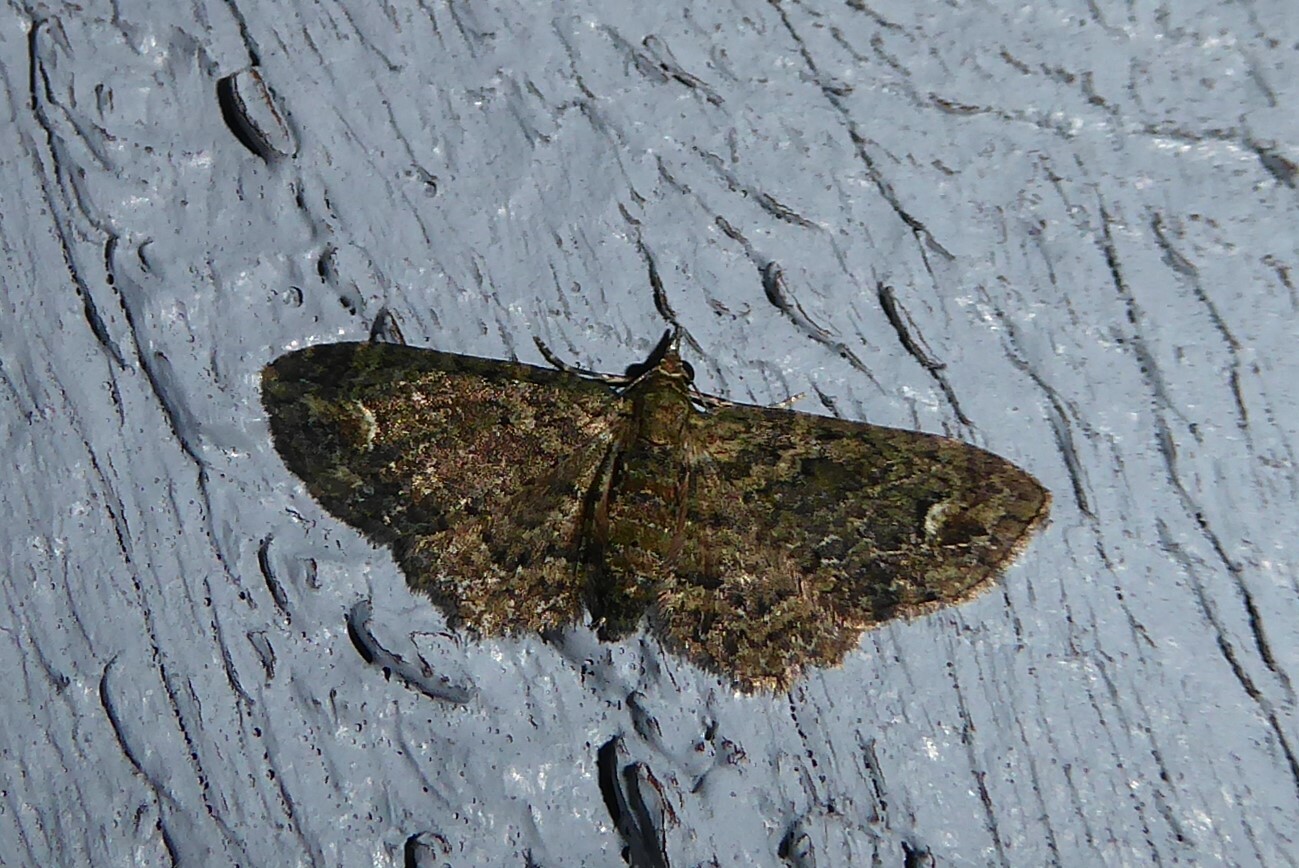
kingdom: Animalia
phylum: Arthropoda
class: Insecta
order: Lepidoptera
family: Geometridae
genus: Pasiphilodes
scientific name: Pasiphilodes testulata
